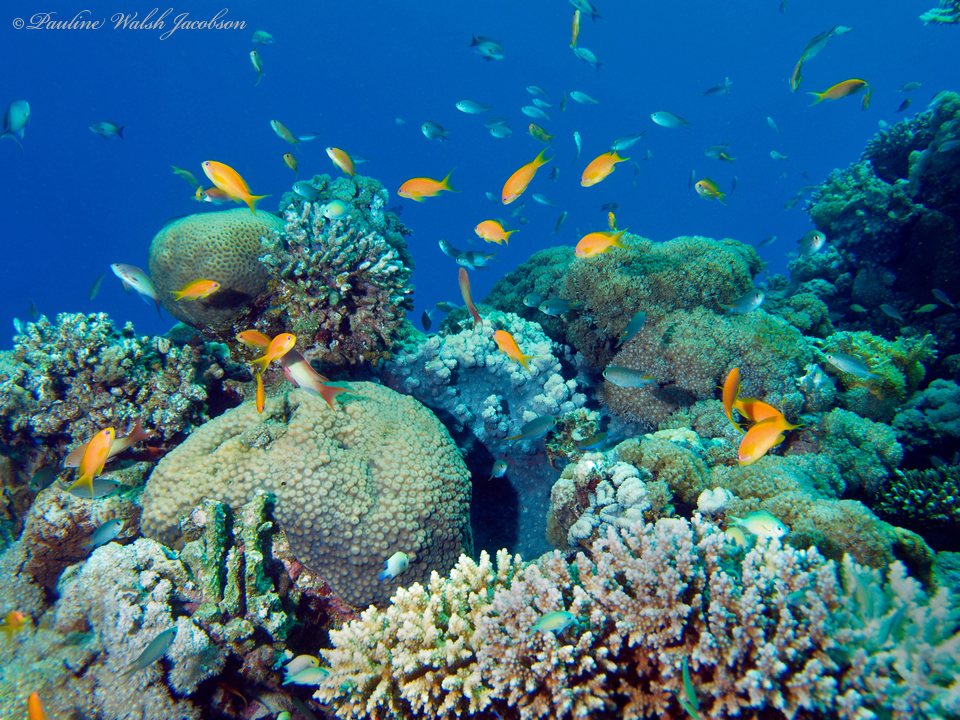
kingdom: Animalia
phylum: Chordata
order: Perciformes
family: Serranidae
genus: Pseudanthias
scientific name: Pseudanthias squamipinnis
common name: Scalefin anthias
